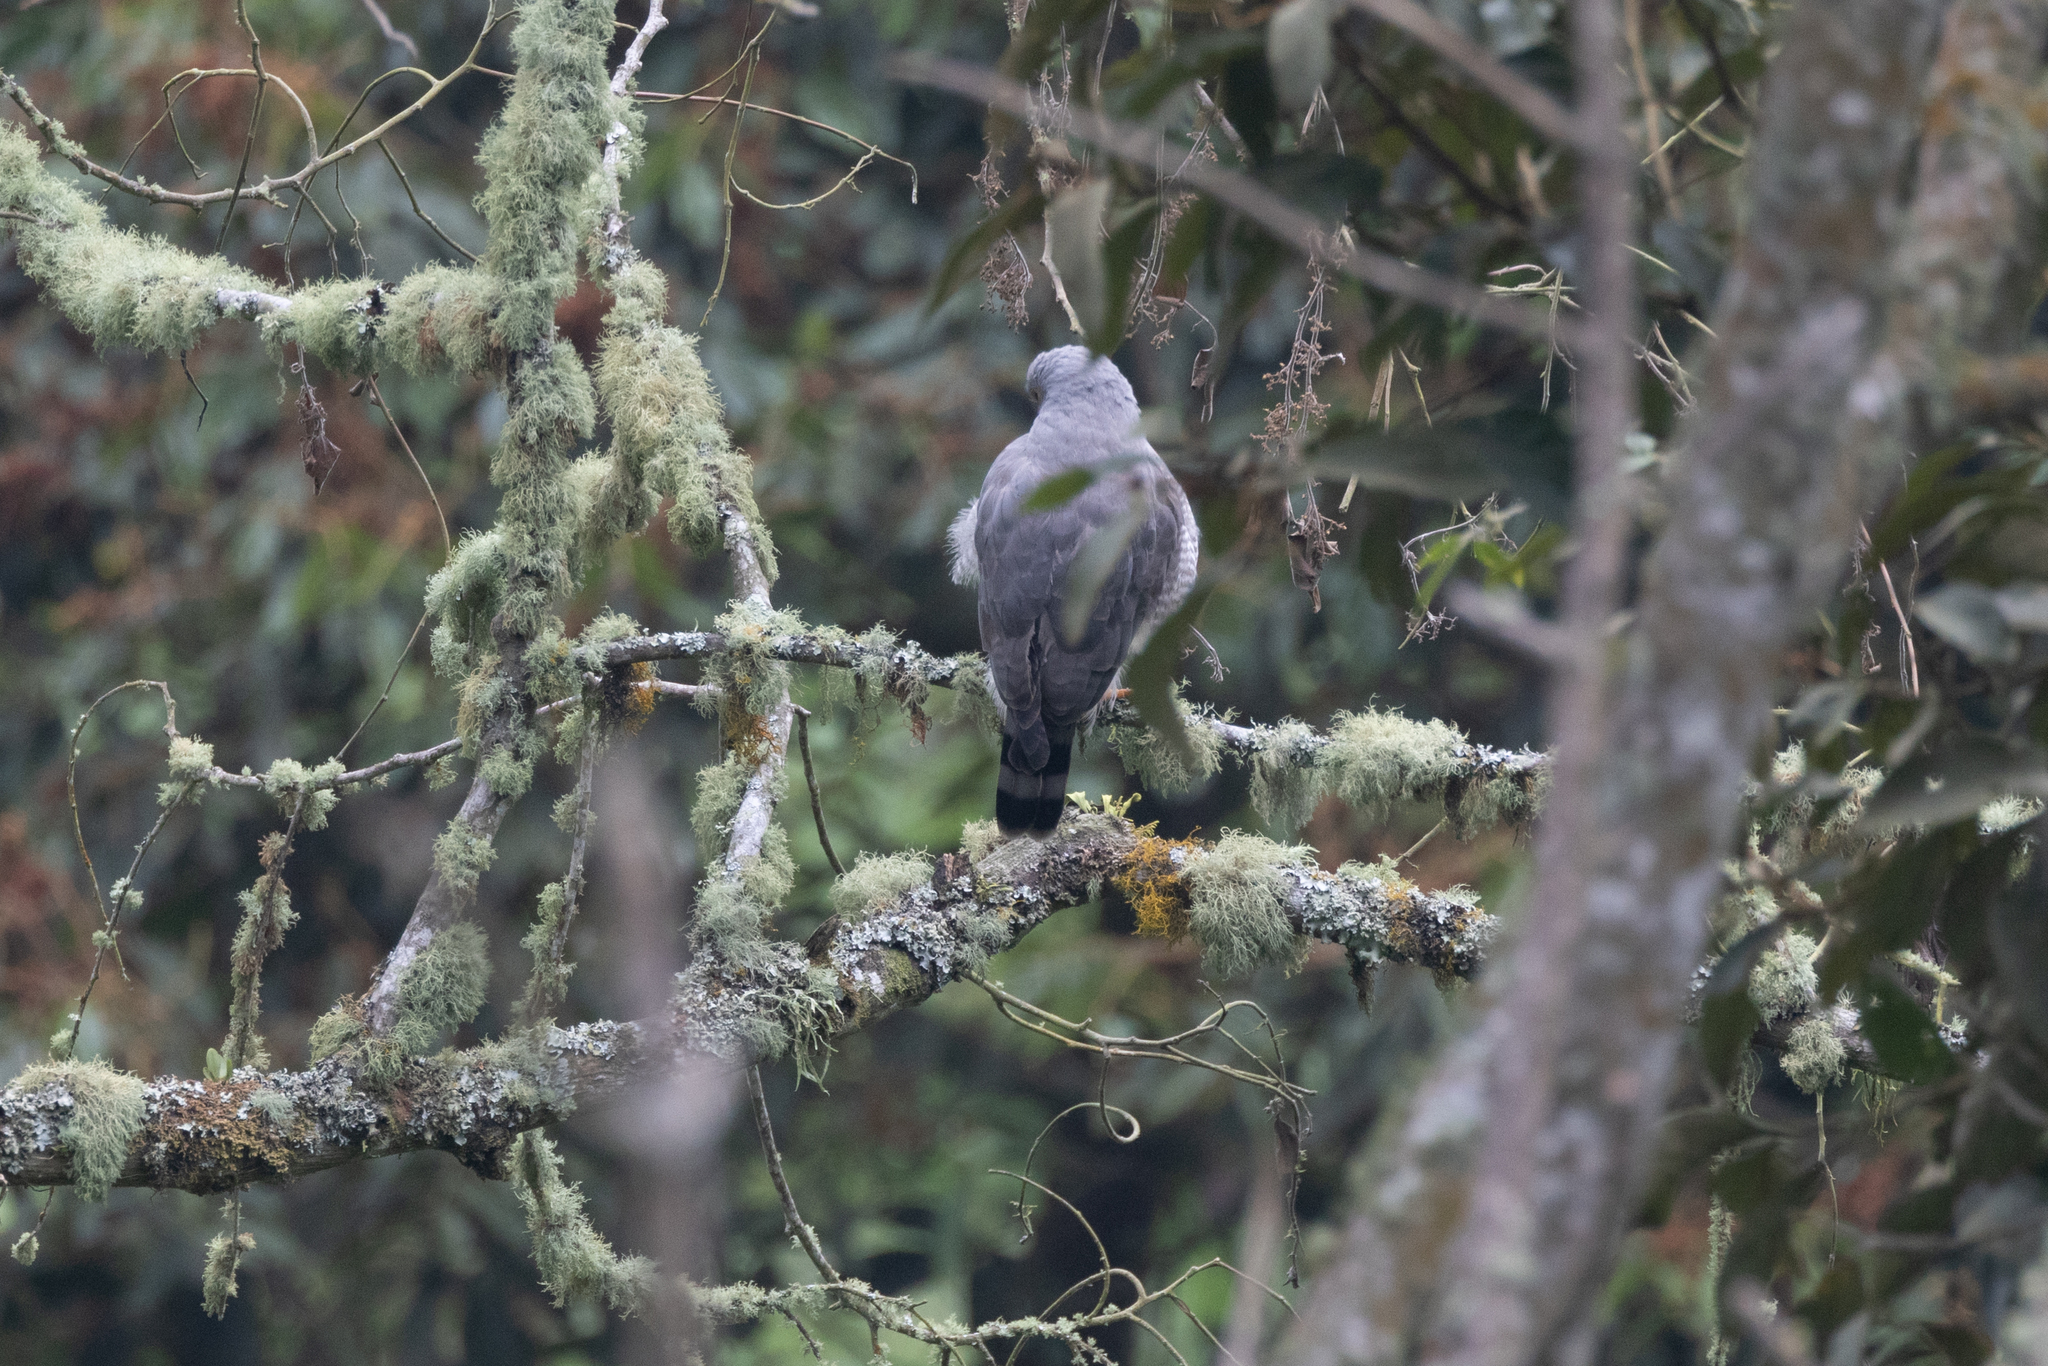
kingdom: Animalia
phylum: Chordata
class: Aves
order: Accipitriformes
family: Accipitridae
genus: Rupornis
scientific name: Rupornis magnirostris
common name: Roadside hawk
